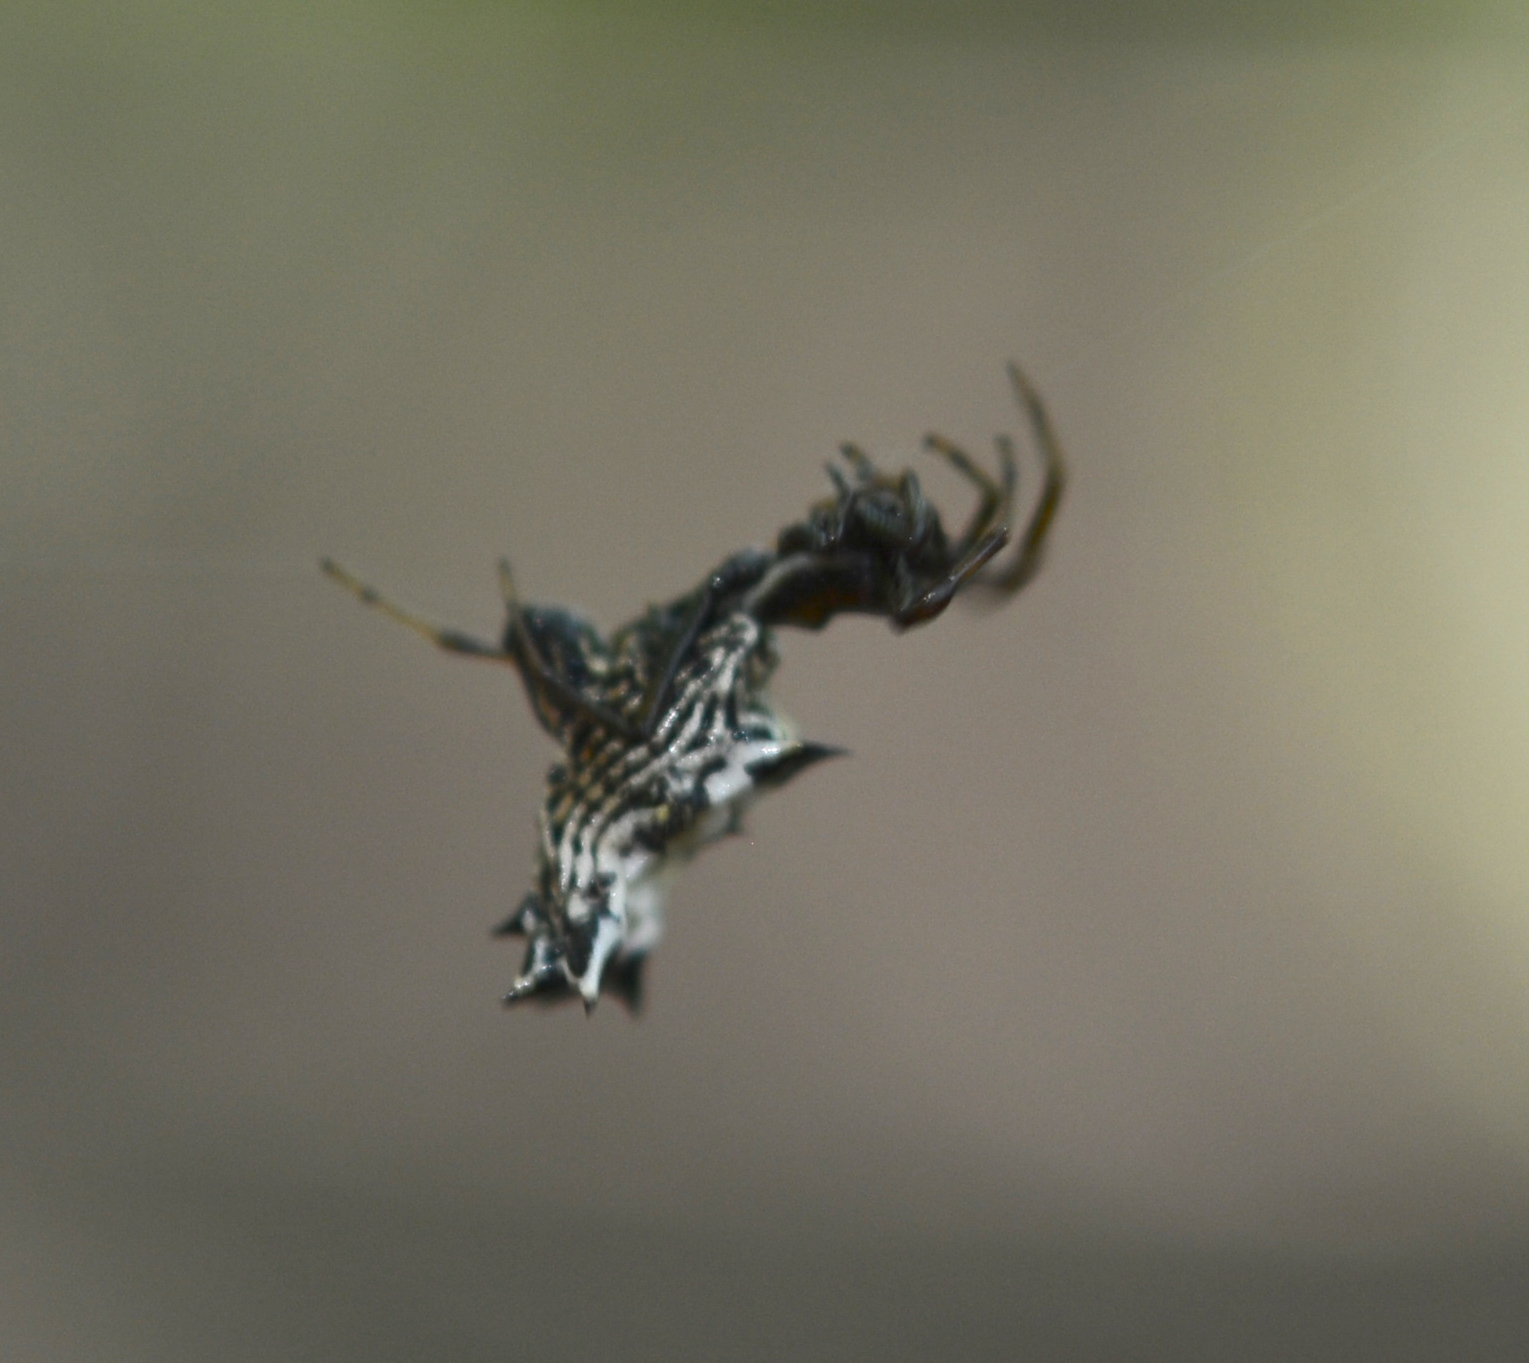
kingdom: Animalia
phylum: Arthropoda
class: Arachnida
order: Araneae
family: Araneidae
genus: Micrathena
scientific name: Micrathena gracilis
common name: Orb weavers
